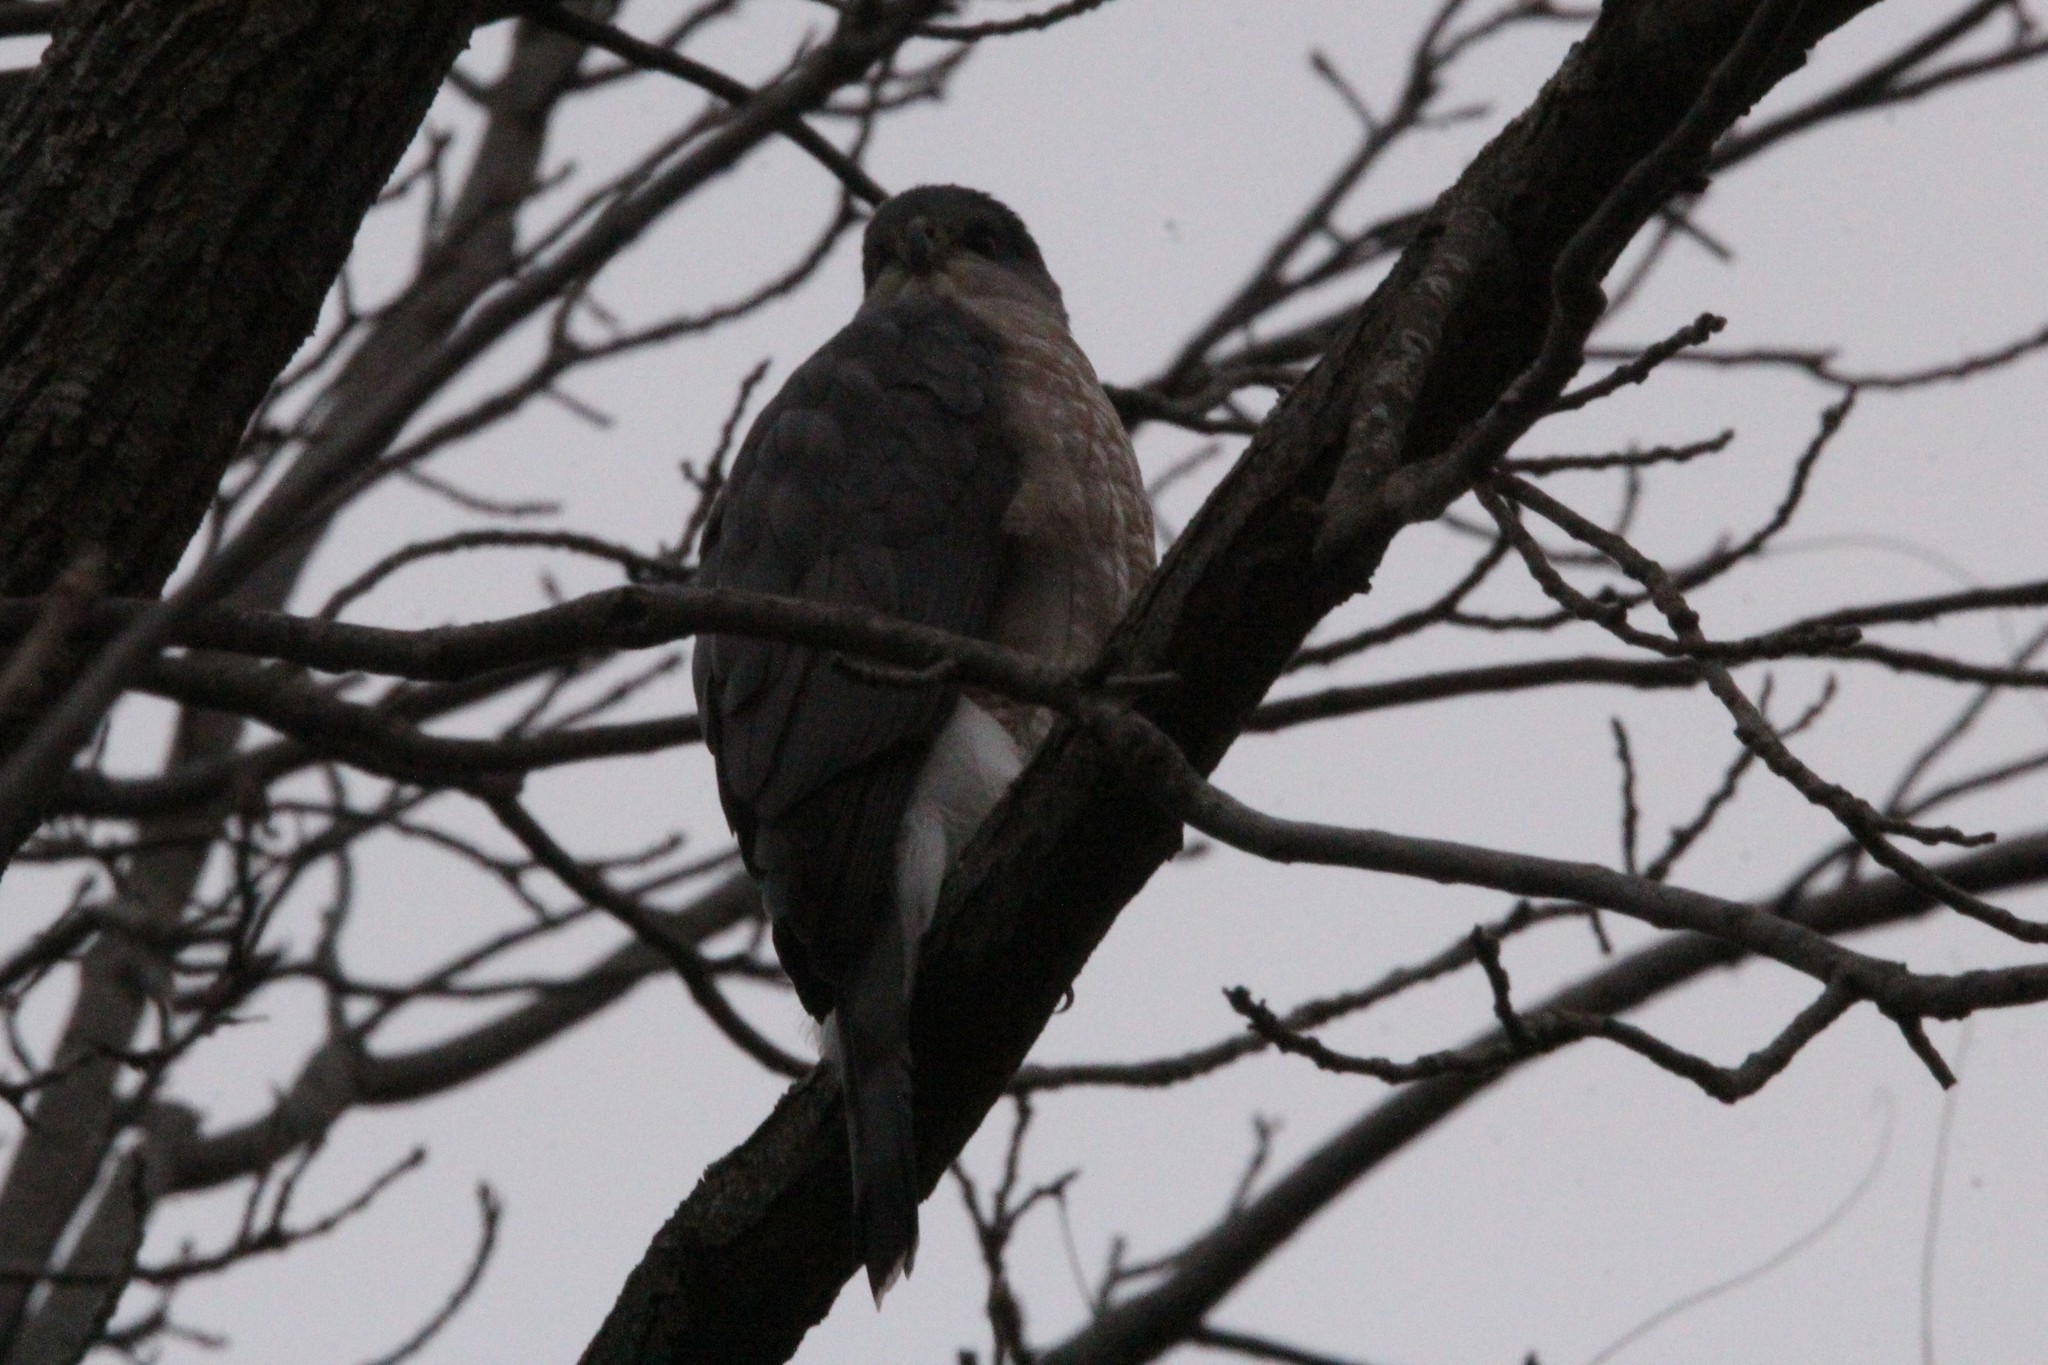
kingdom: Animalia
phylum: Chordata
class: Aves
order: Accipitriformes
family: Accipitridae
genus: Accipiter
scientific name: Accipiter cooperii
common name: Cooper's hawk
